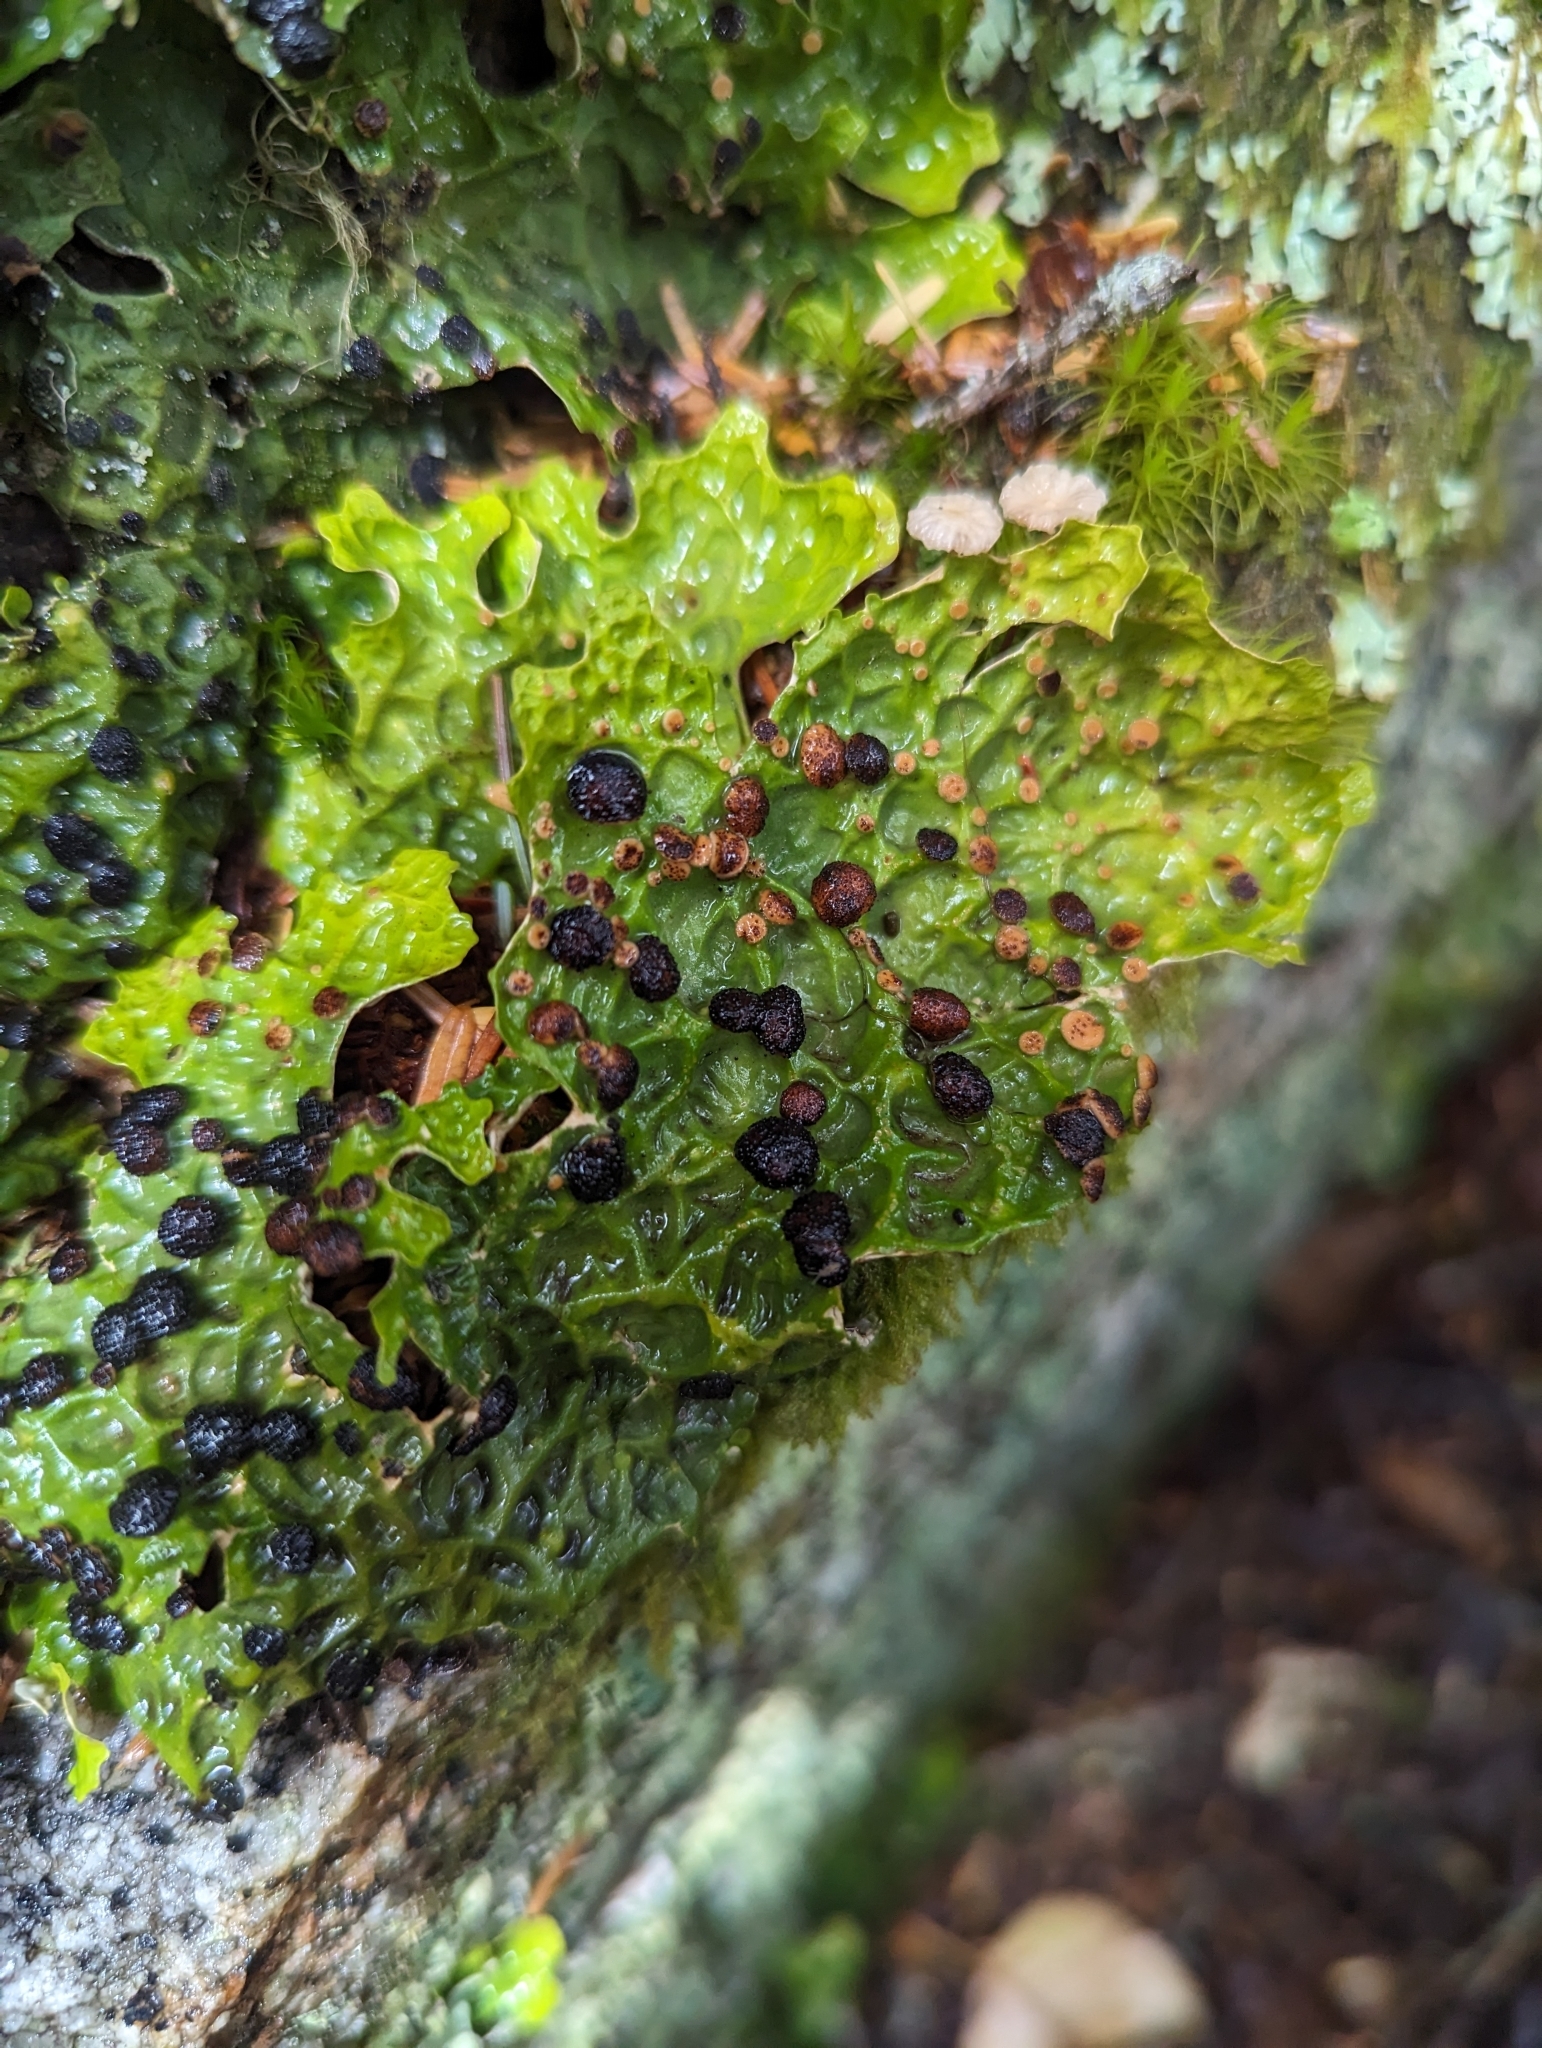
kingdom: Fungi
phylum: Ascomycota
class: Lecanoromycetes
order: Peltigerales
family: Lobariaceae
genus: Lobaria
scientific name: Lobaria linita
